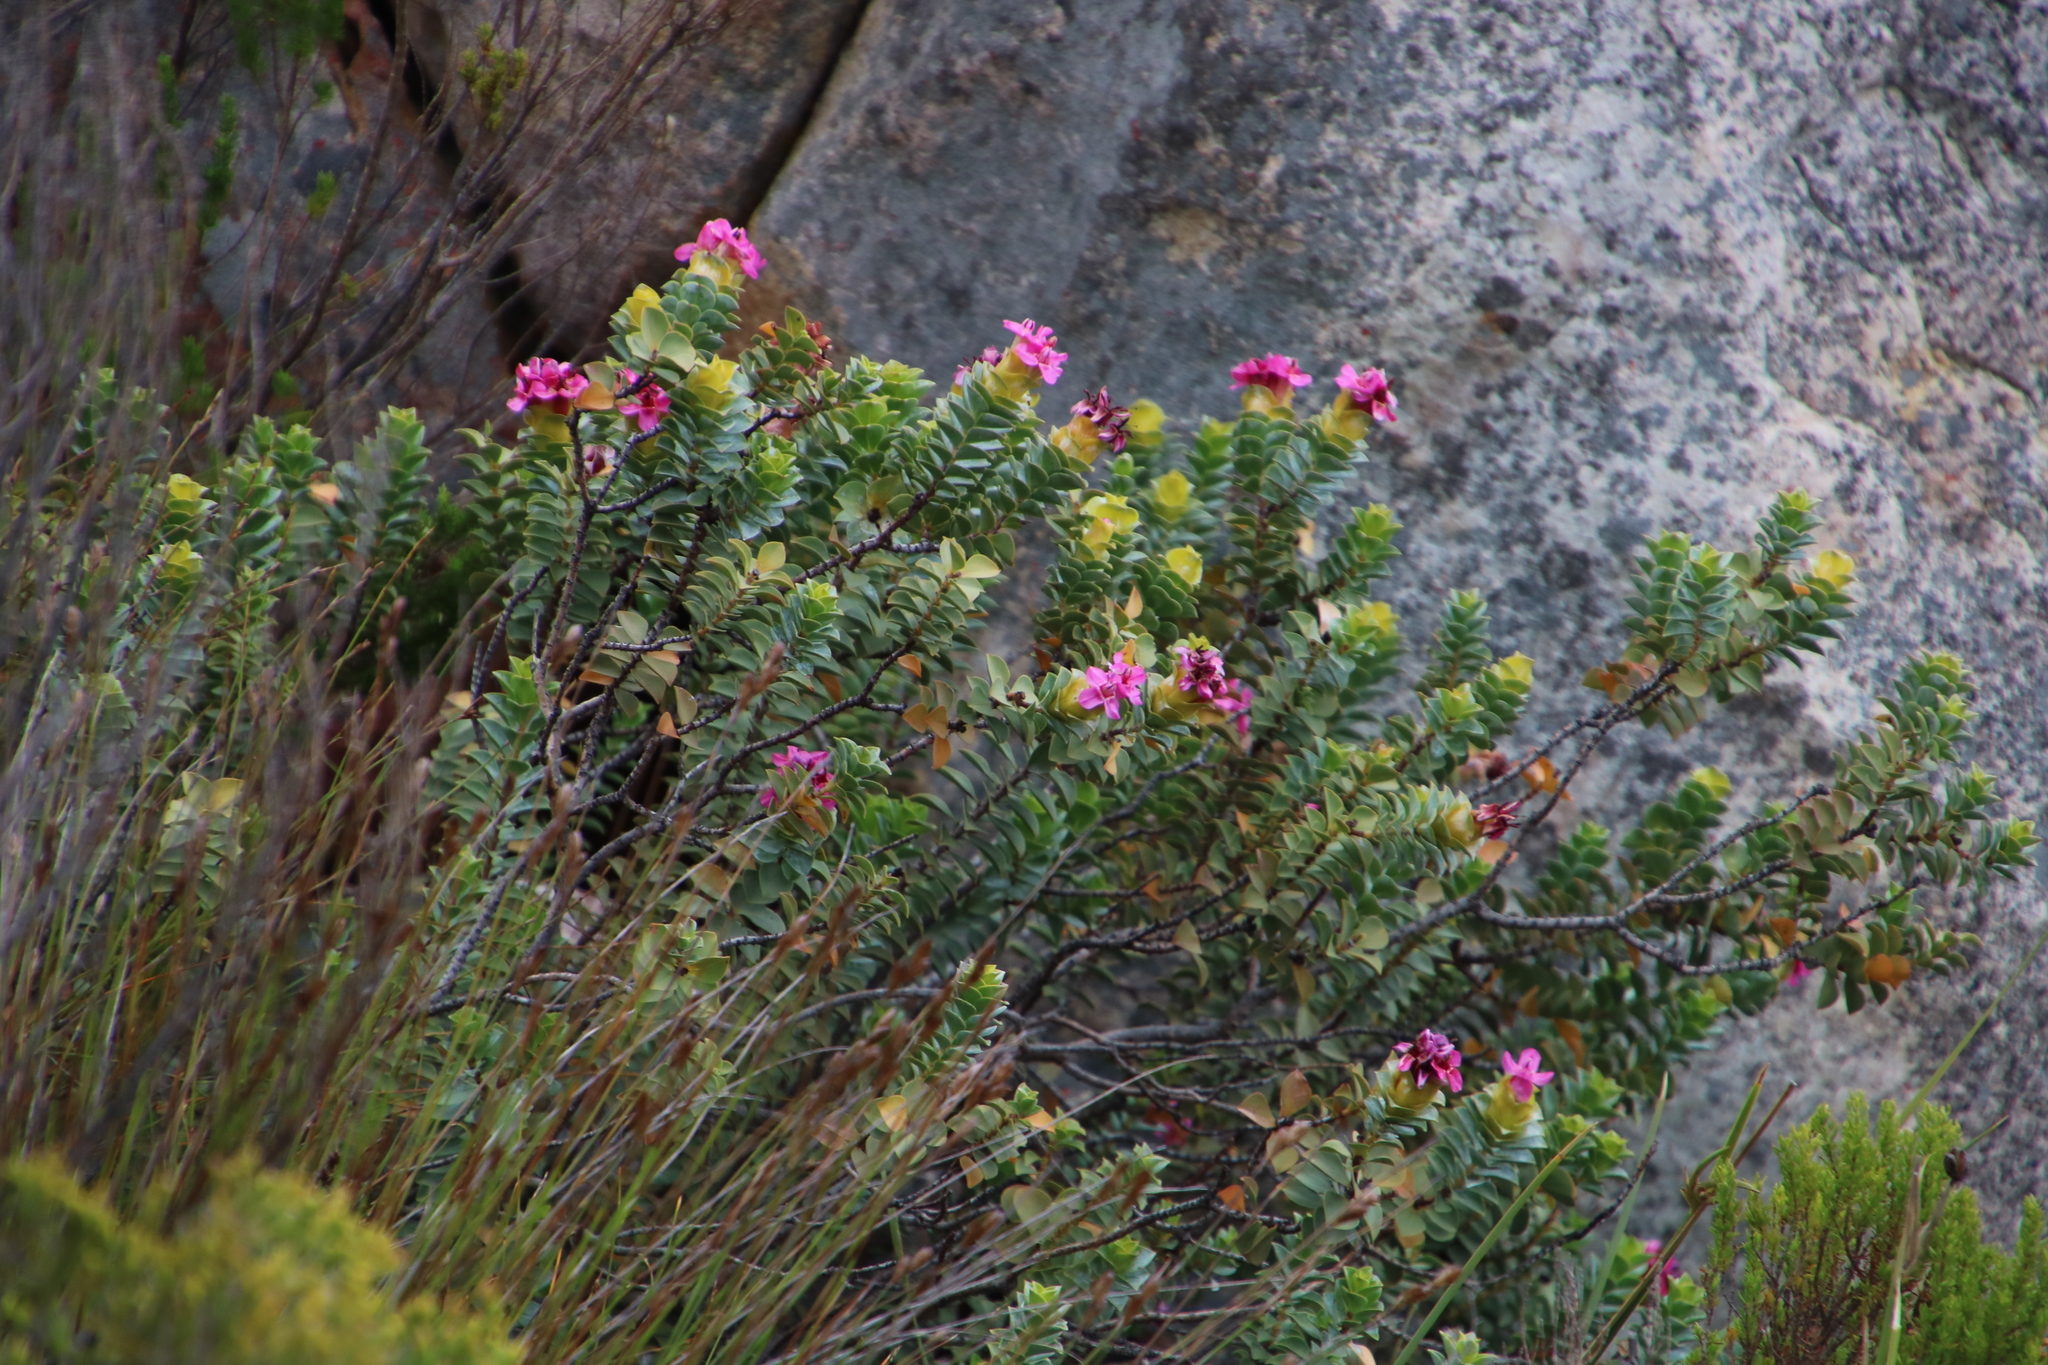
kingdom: Plantae
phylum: Tracheophyta
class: Magnoliopsida
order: Myrtales
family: Penaeaceae
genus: Saltera
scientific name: Saltera sarcocolla
